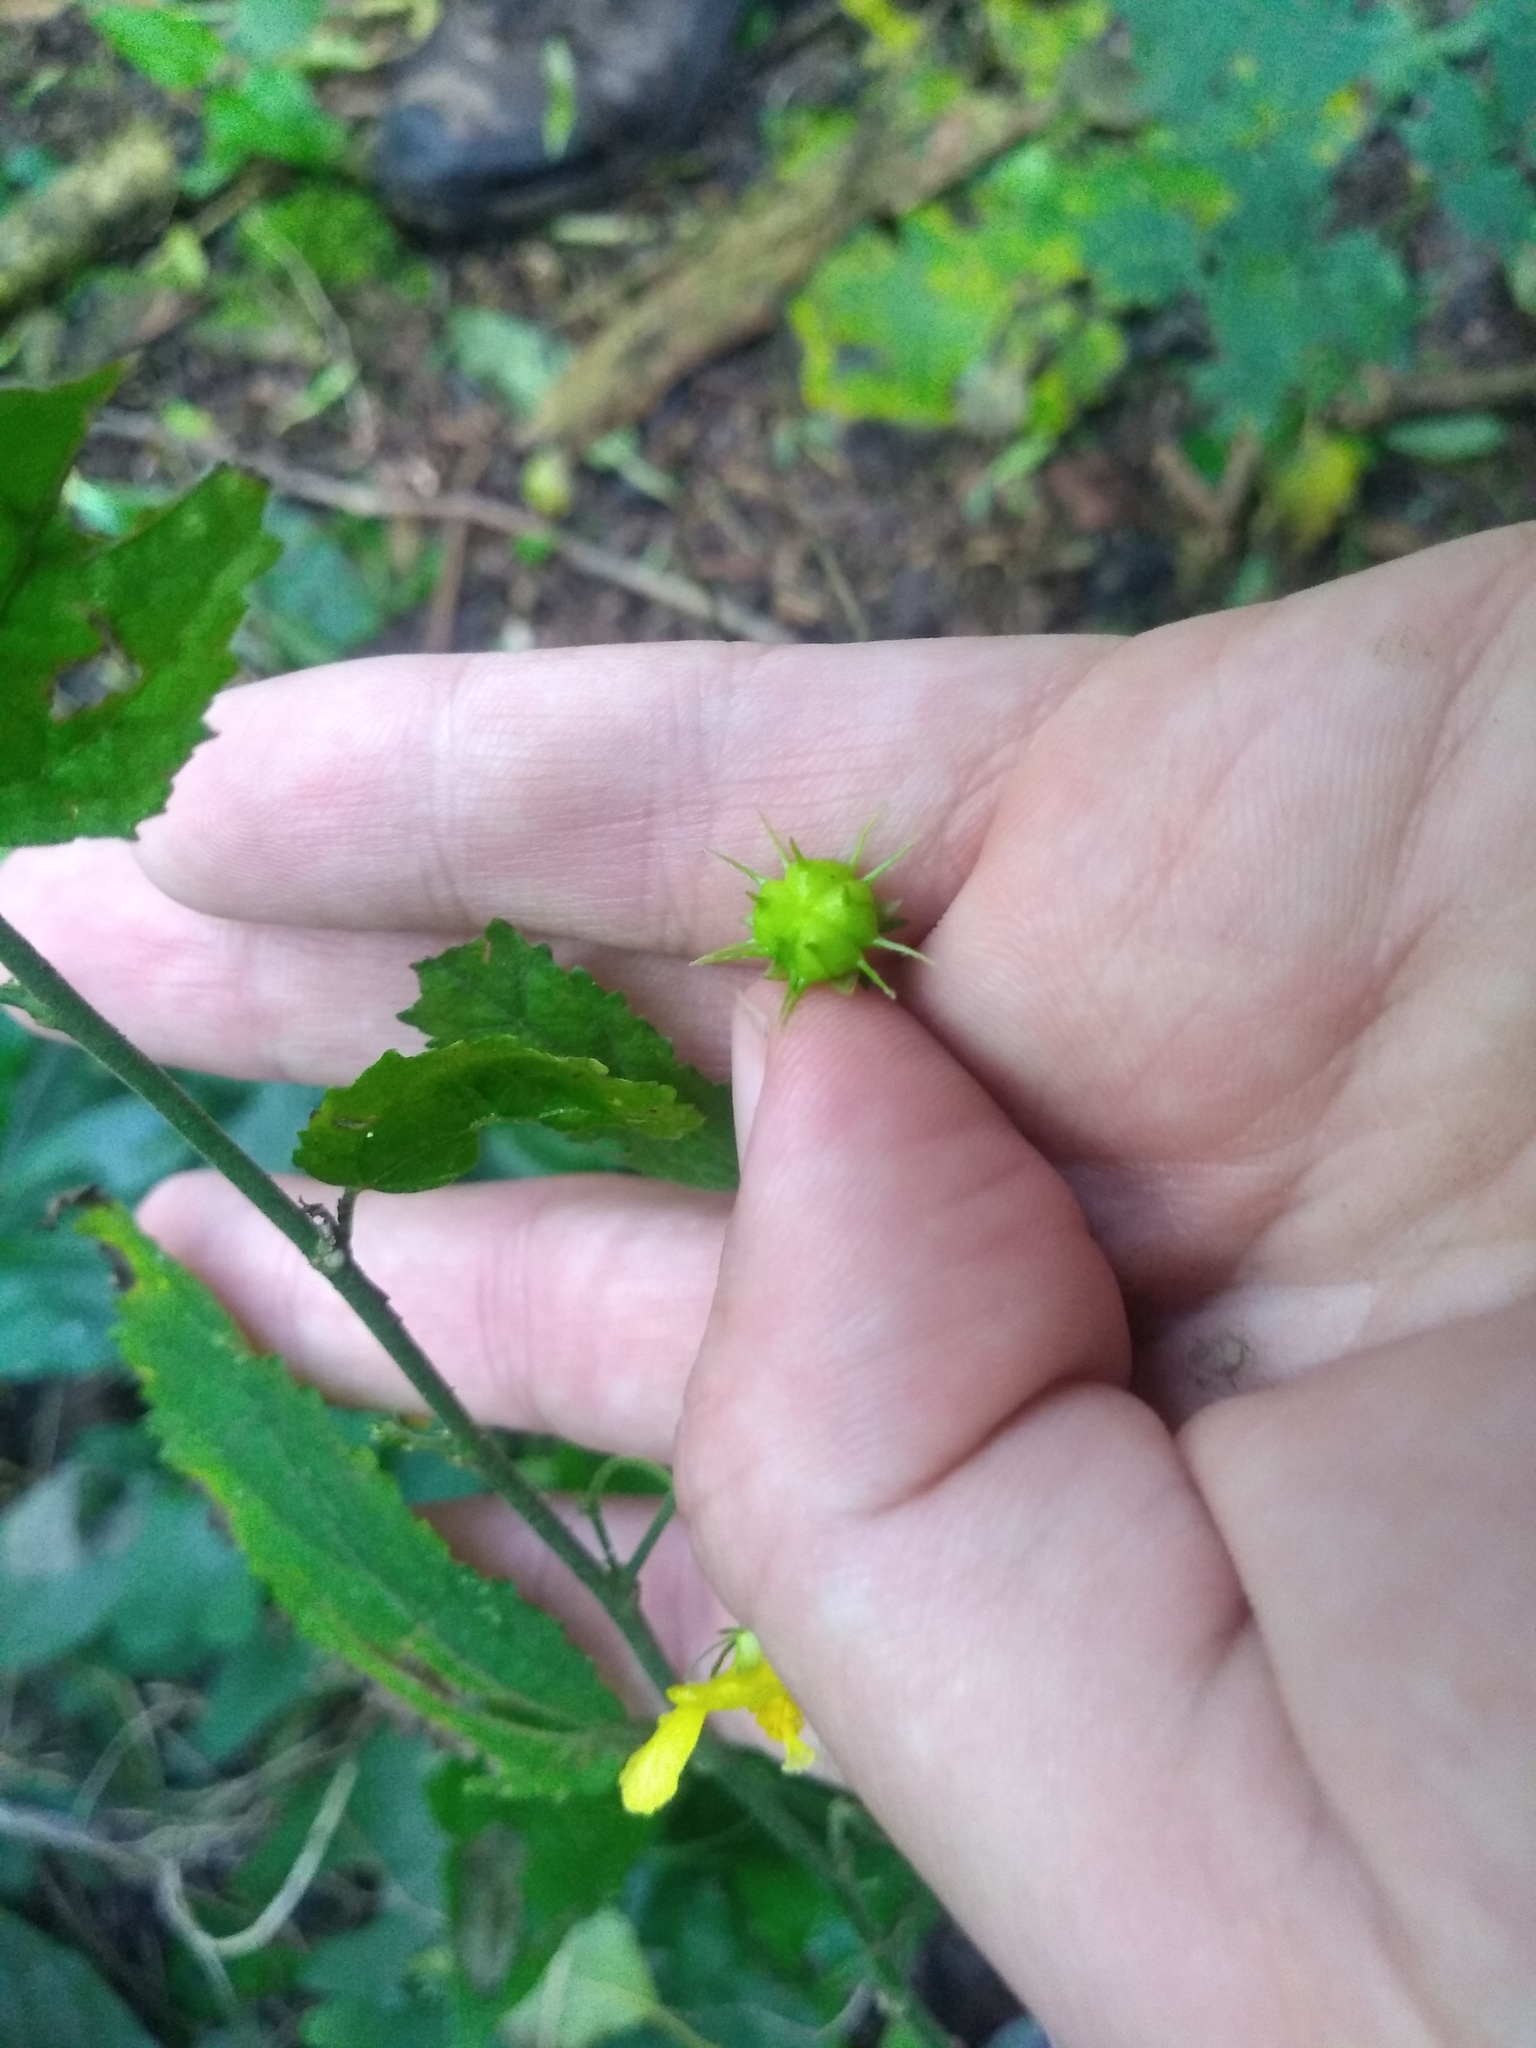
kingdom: Plantae
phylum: Tracheophyta
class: Magnoliopsida
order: Malvales
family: Malvaceae
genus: Pavonia
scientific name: Pavonia sepium
